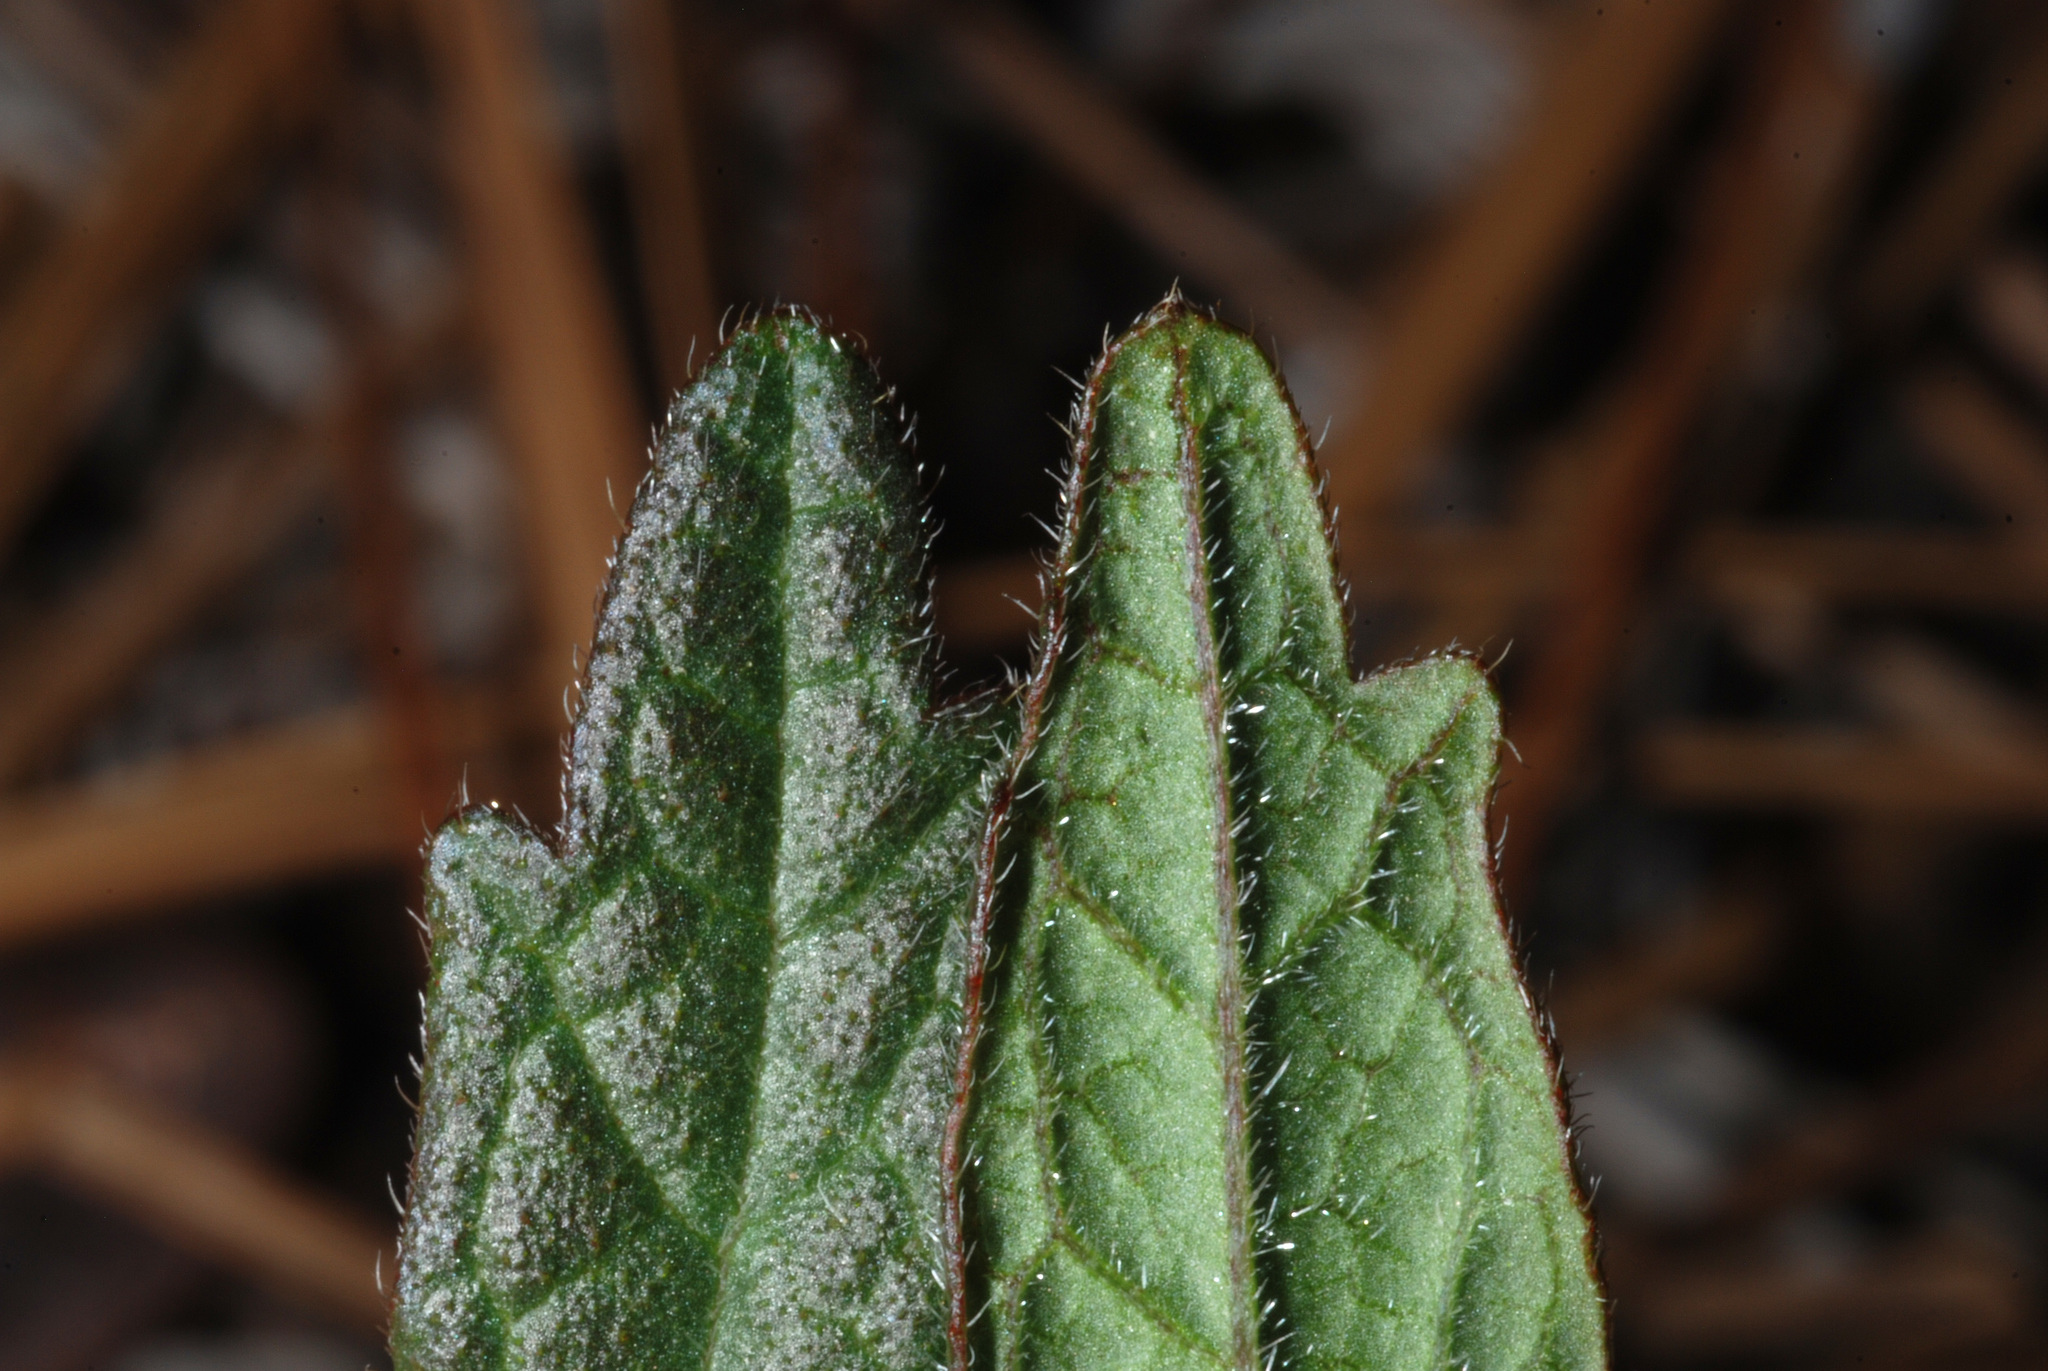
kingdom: Plantae
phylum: Tracheophyta
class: Magnoliopsida
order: Malpighiales
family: Euphorbiaceae
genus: Tragia
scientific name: Tragia urens
